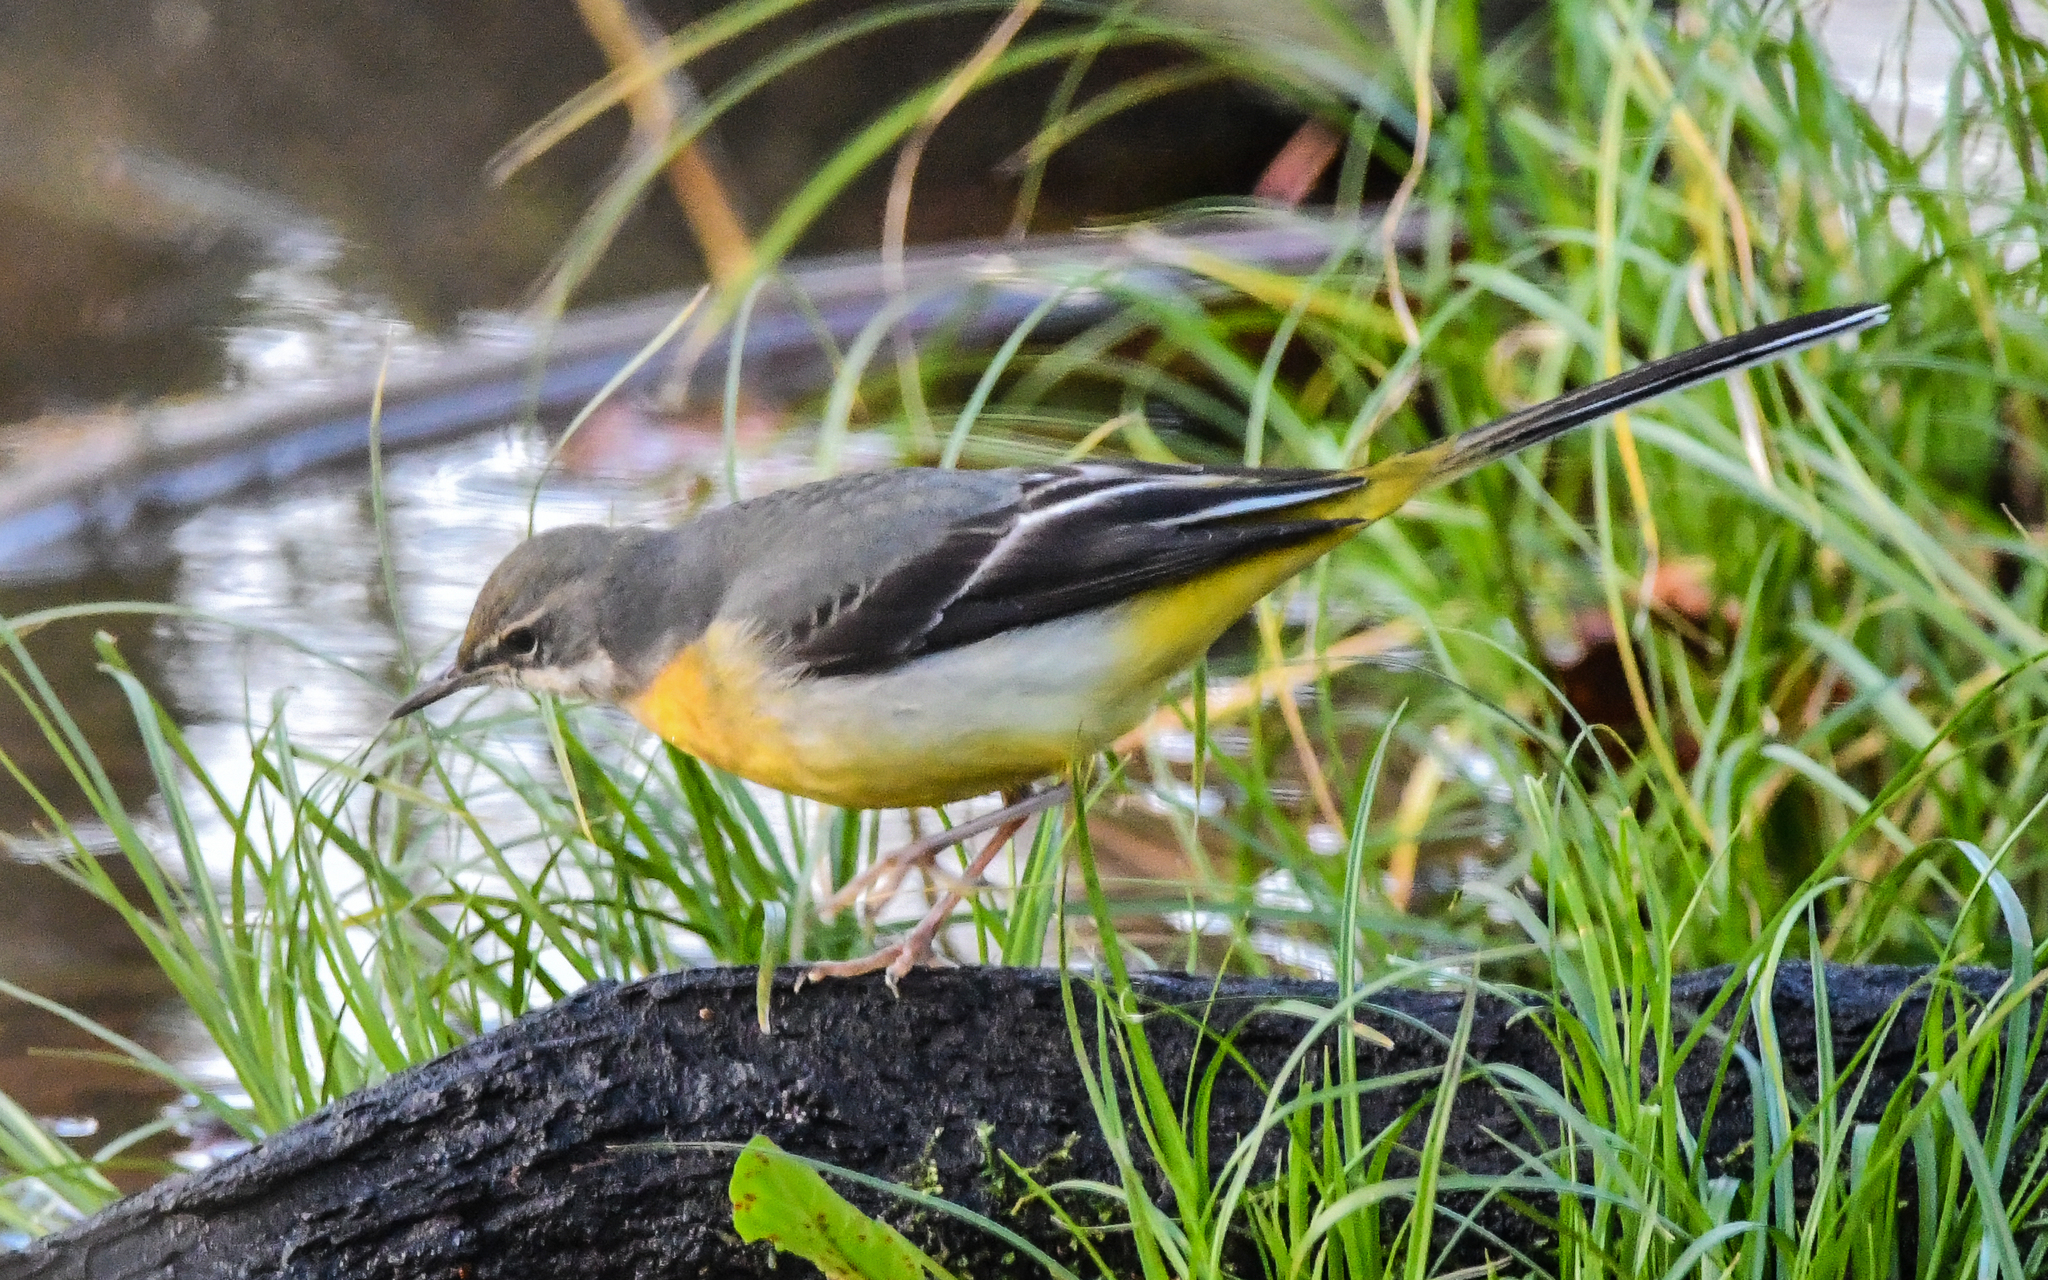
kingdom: Animalia
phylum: Chordata
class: Aves
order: Passeriformes
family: Motacillidae
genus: Motacilla
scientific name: Motacilla cinerea
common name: Grey wagtail
